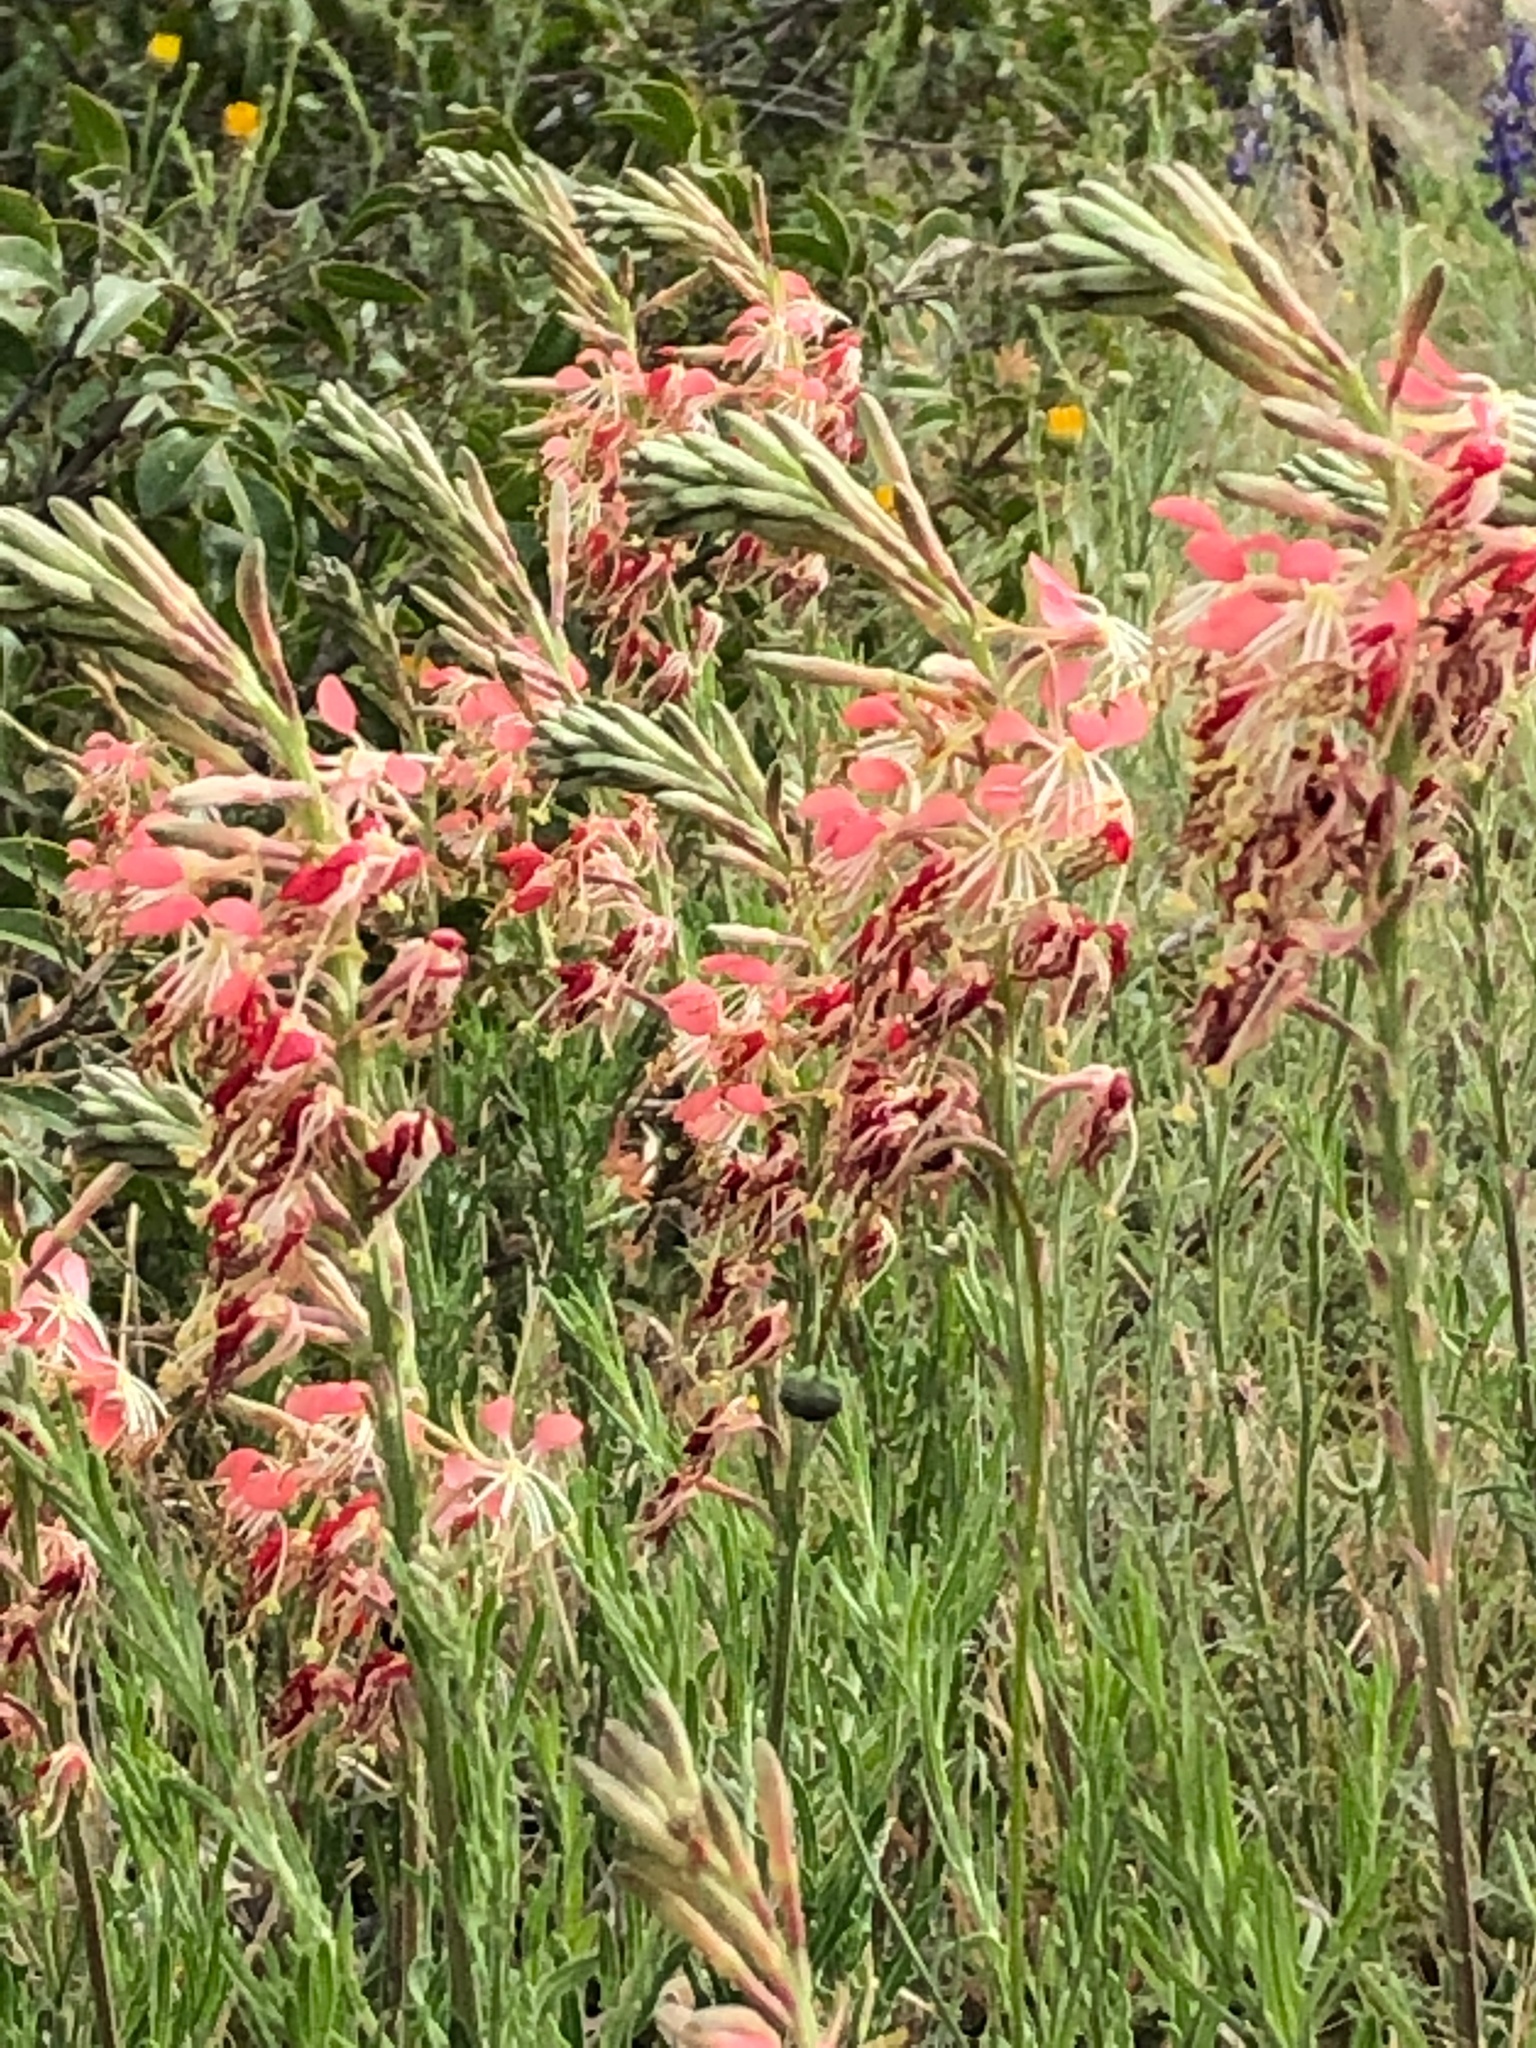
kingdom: Plantae
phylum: Tracheophyta
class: Magnoliopsida
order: Myrtales
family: Onagraceae
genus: Oenothera
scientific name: Oenothera suffrutescens
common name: Scarlet beeblossom
